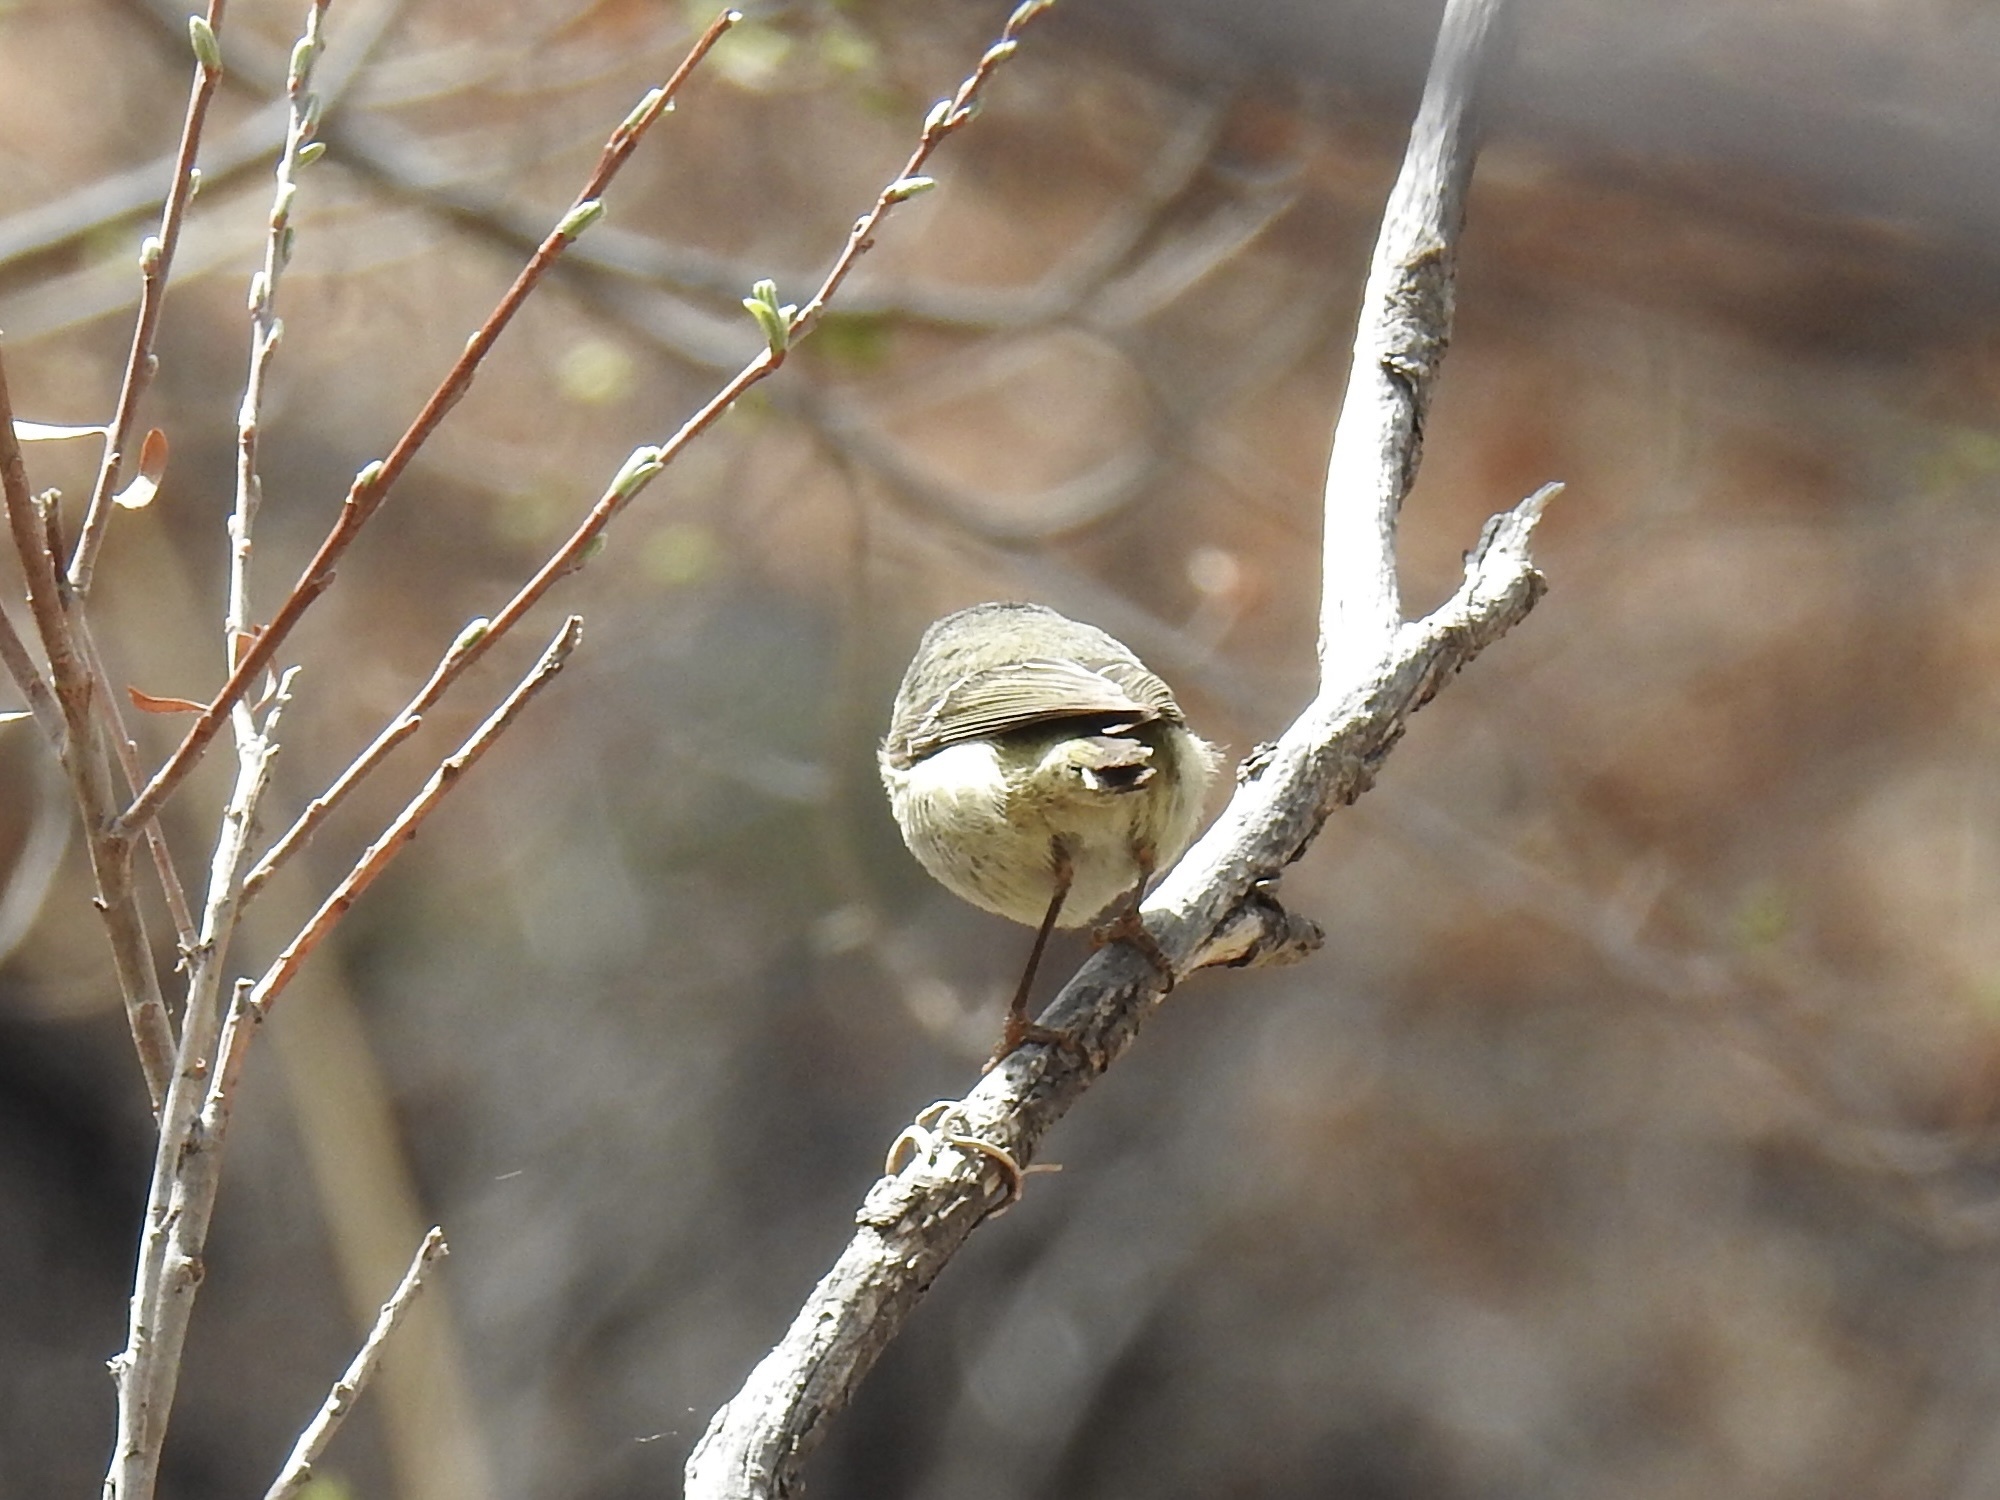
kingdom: Animalia
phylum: Chordata
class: Aves
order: Passeriformes
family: Regulidae
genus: Regulus
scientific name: Regulus calendula
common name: Ruby-crowned kinglet
